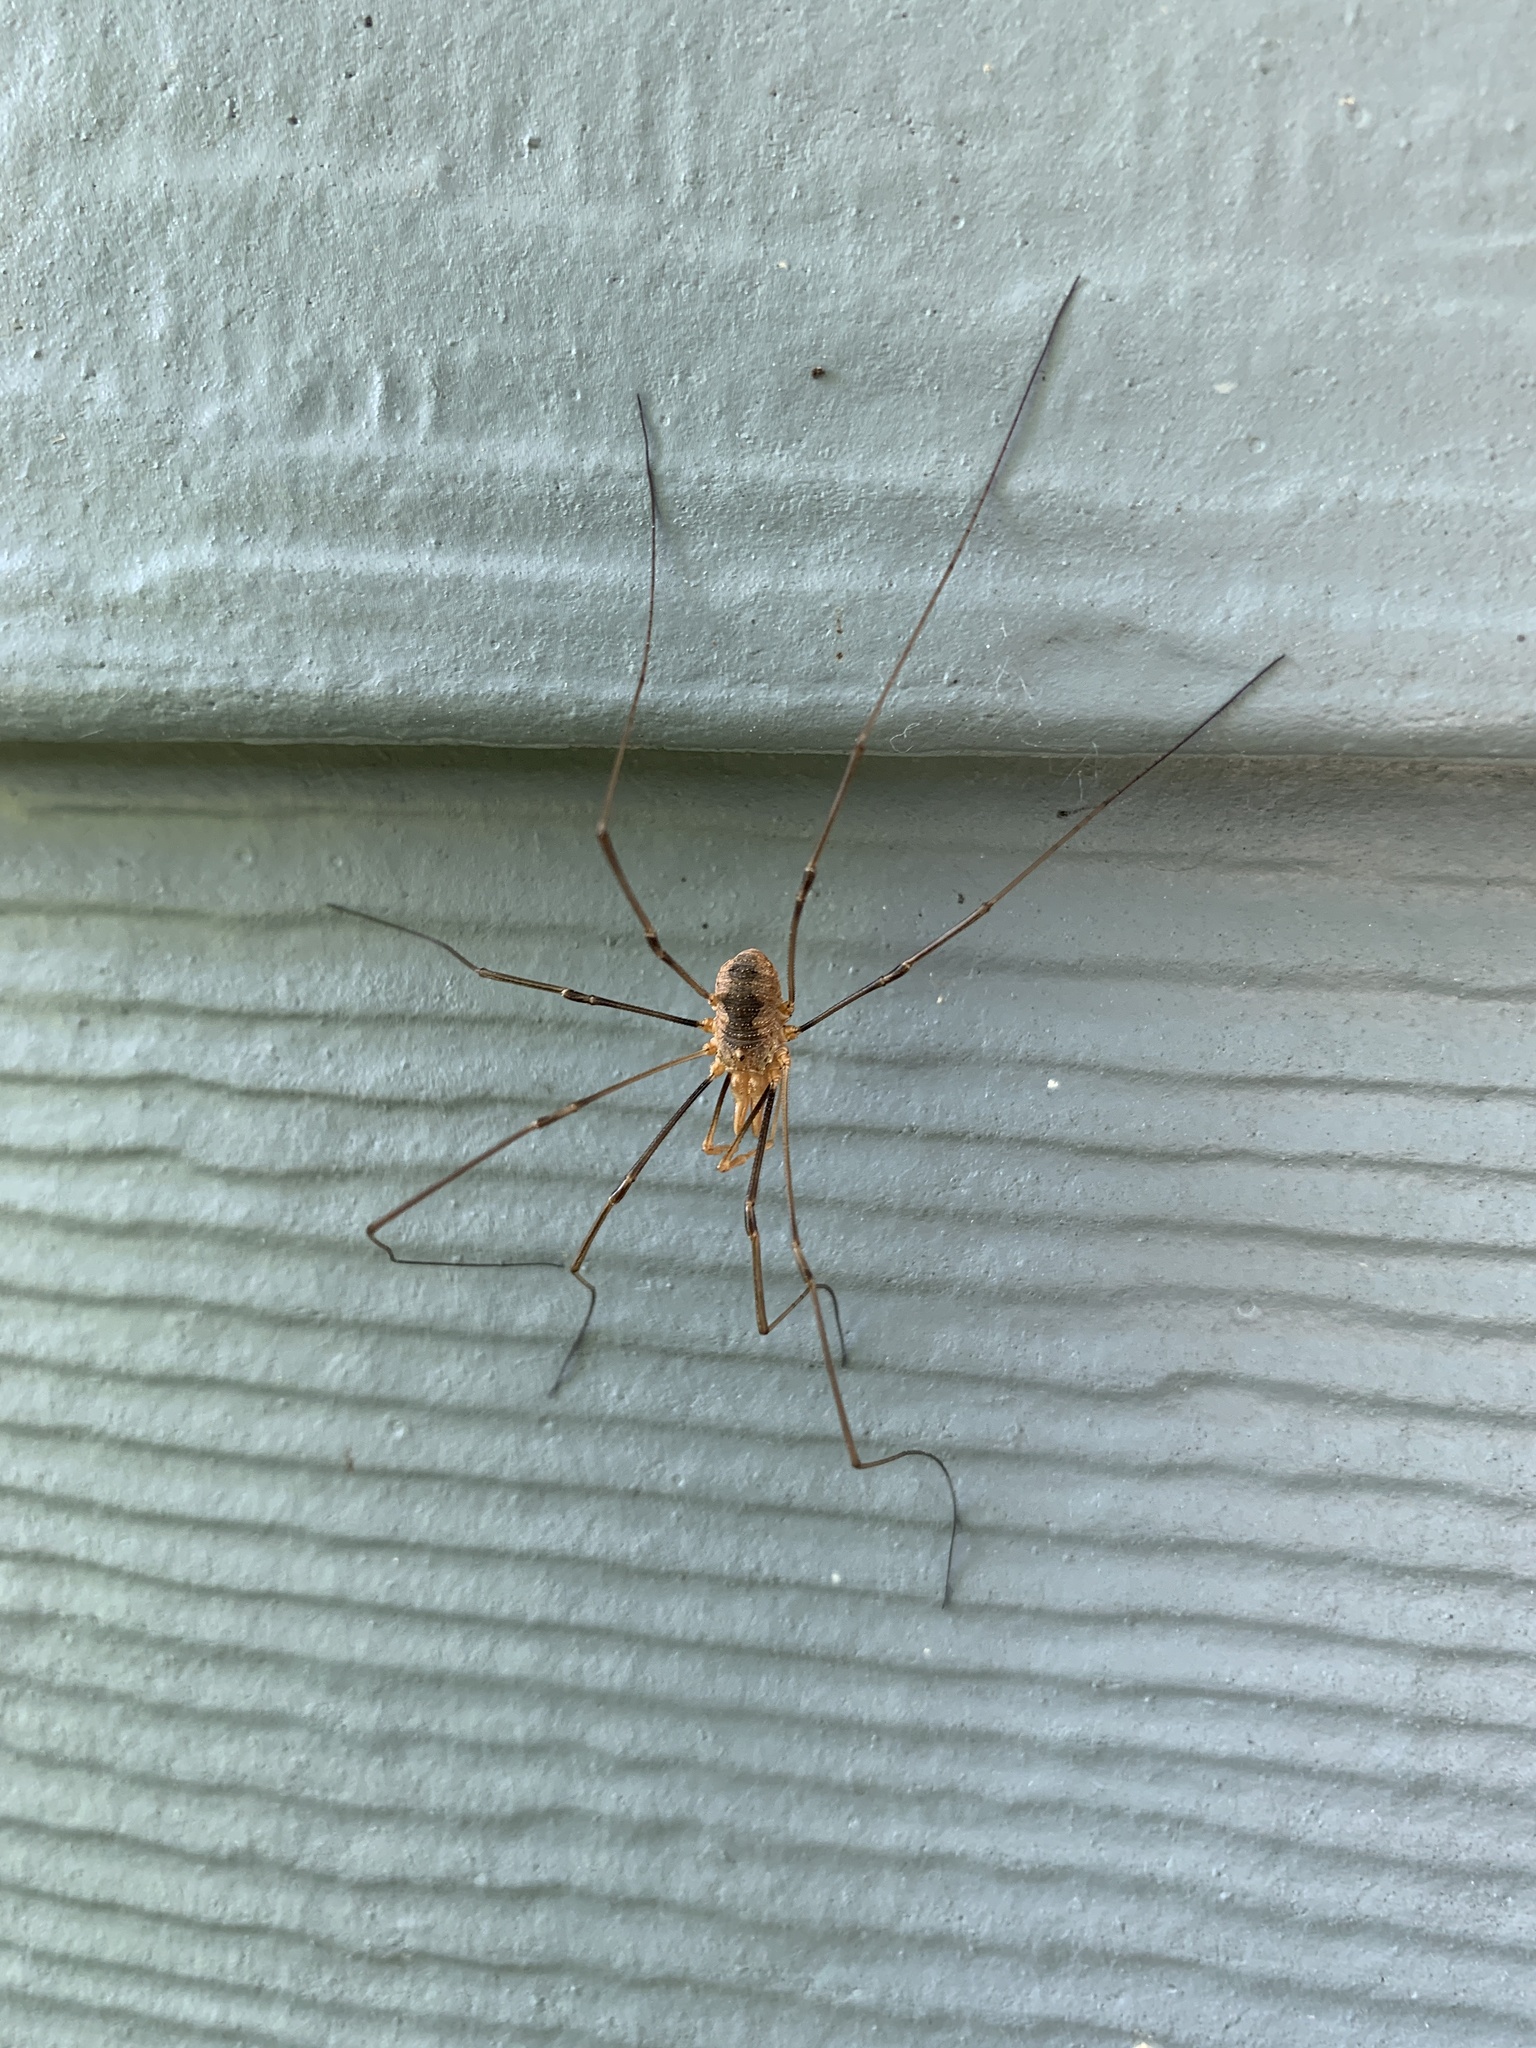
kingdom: Animalia
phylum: Arthropoda
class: Arachnida
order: Opiliones
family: Phalangiidae
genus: Phalangium
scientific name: Phalangium opilio
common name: Daddy longleg
